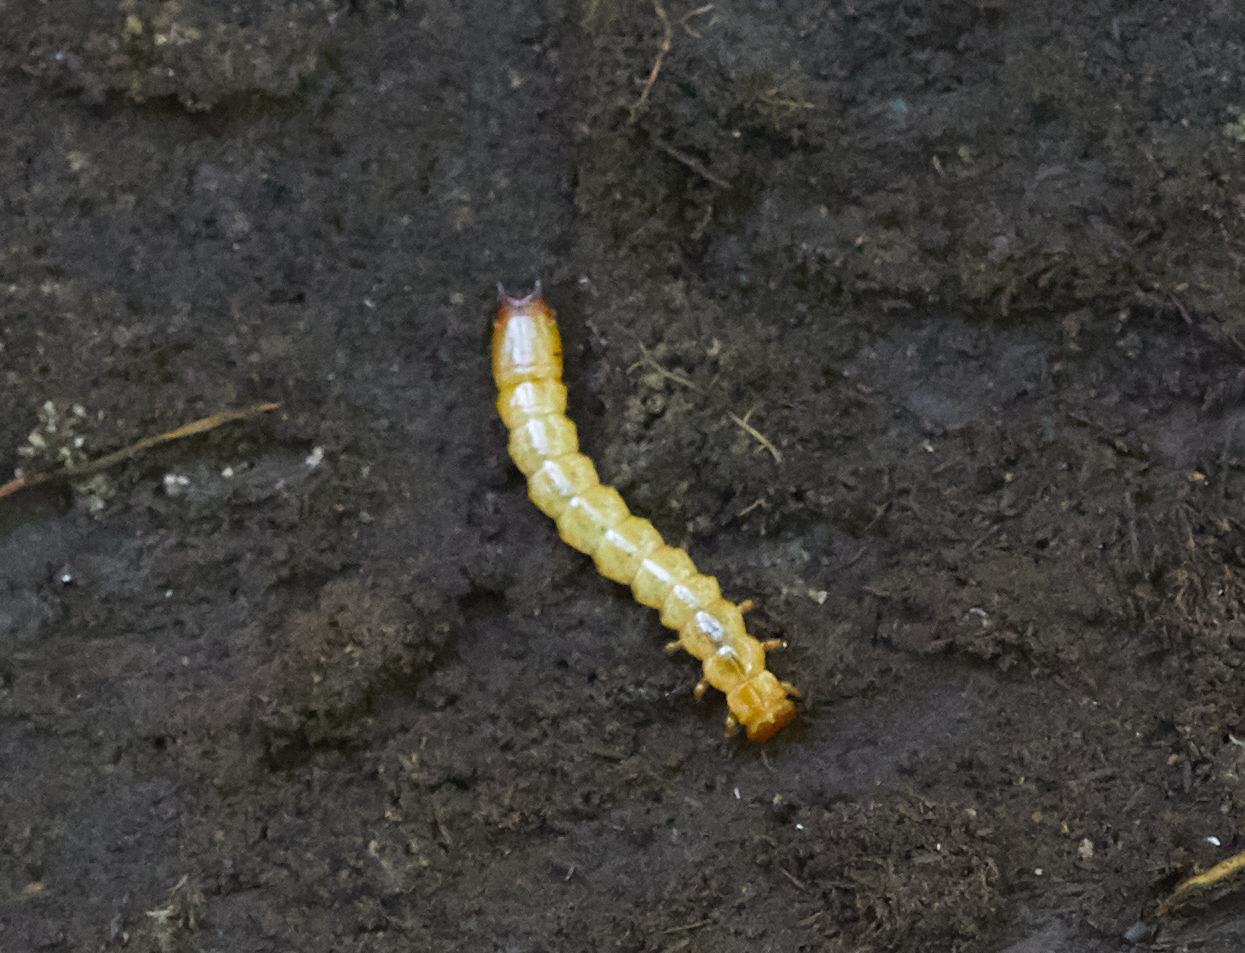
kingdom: Animalia
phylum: Arthropoda
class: Insecta
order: Coleoptera
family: Pyrochroidae
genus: Dendroides
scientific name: Dendroides canadensis
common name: Canada fire-colored beetle
